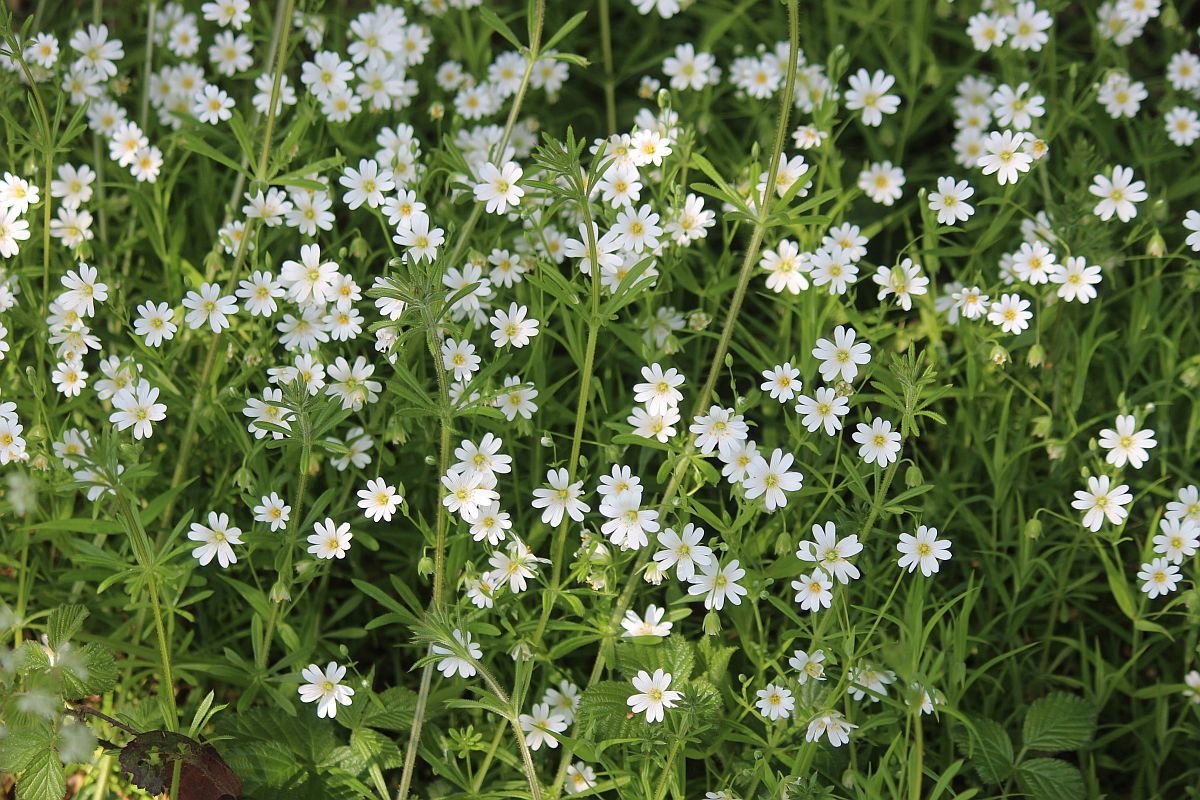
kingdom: Plantae
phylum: Tracheophyta
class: Magnoliopsida
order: Caryophyllales
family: Caryophyllaceae
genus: Rabelera
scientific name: Rabelera holostea
